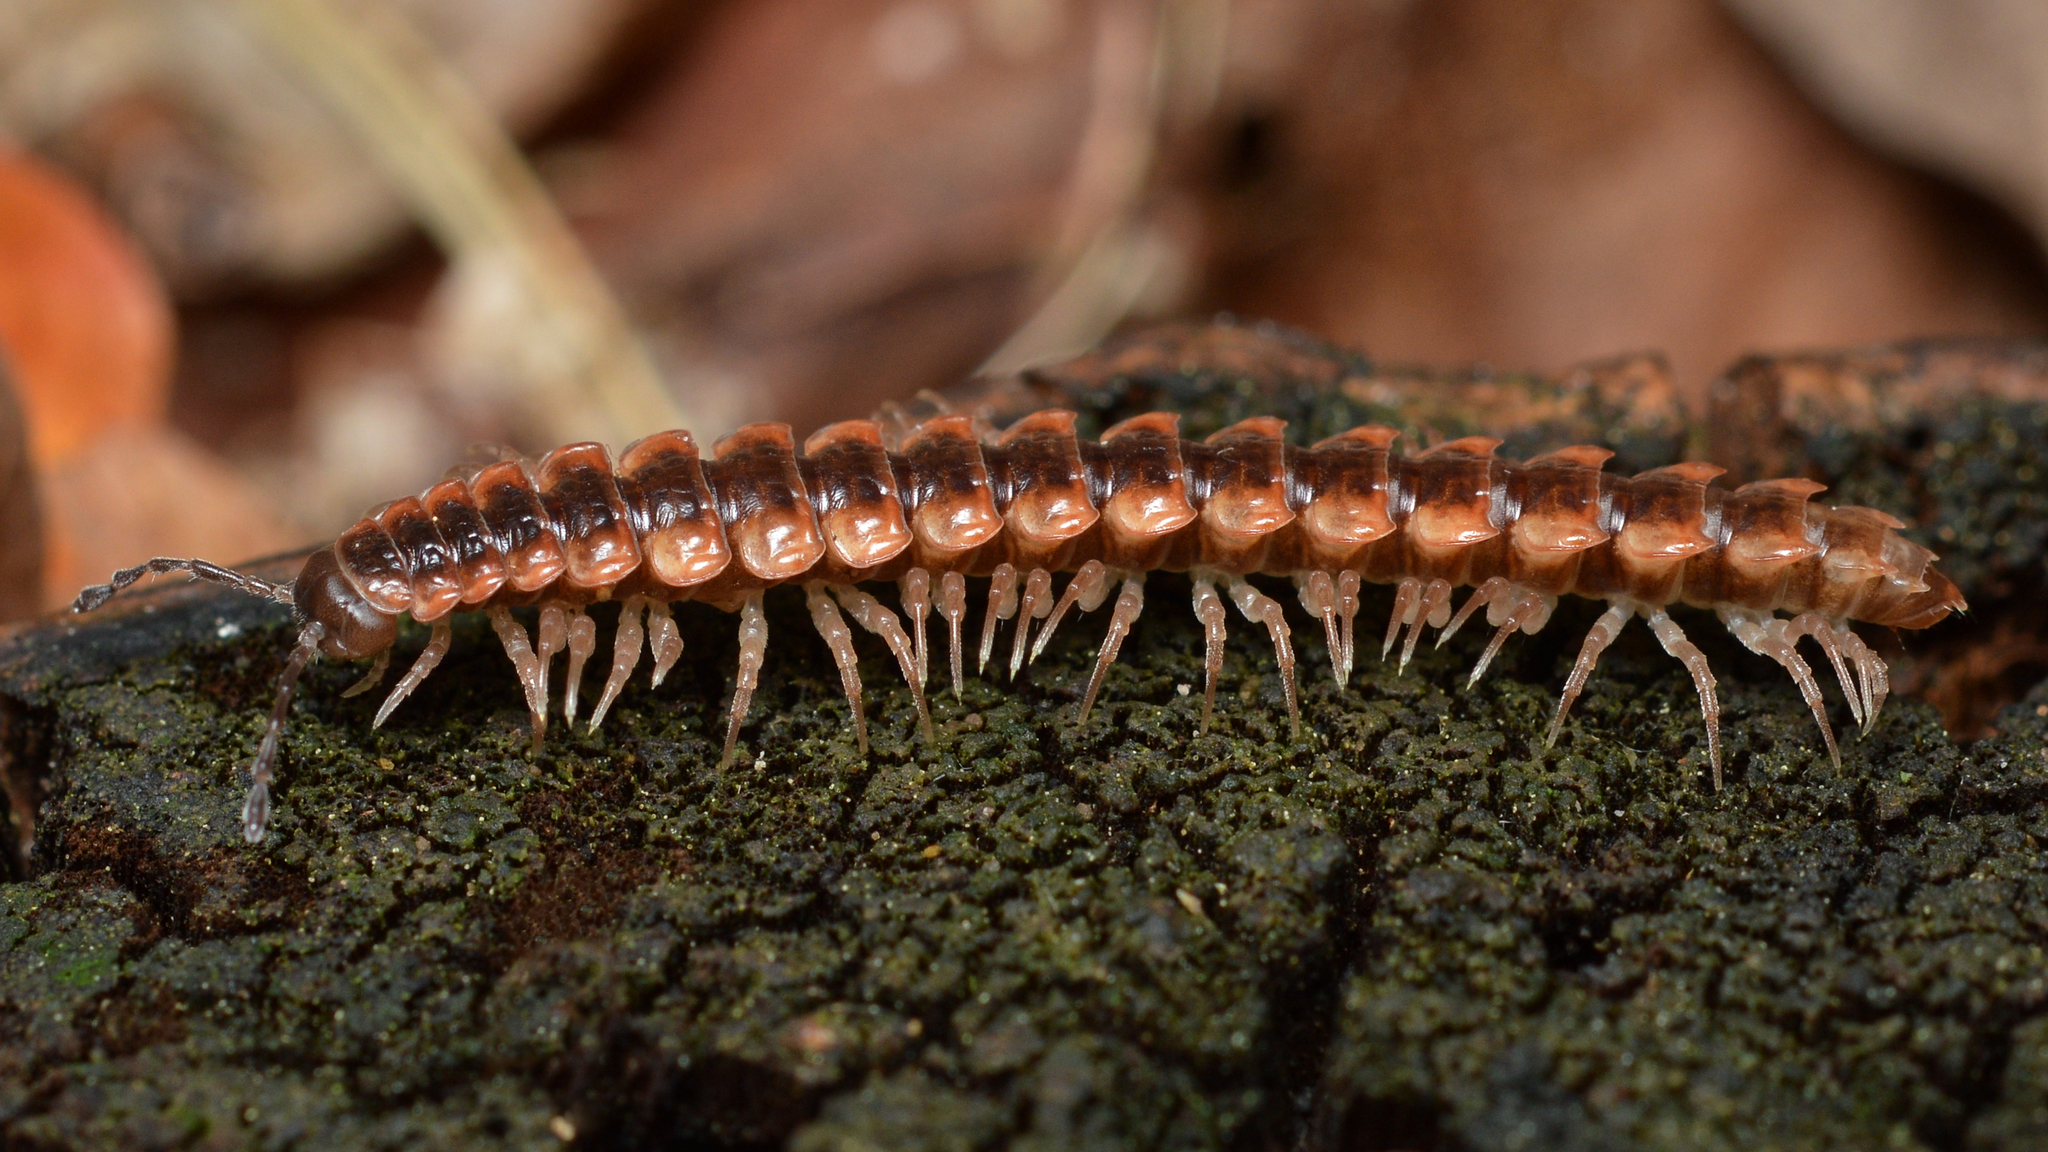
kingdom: Animalia
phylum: Arthropoda
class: Diplopoda
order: Polydesmida
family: Polydesmidae
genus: Pseudopolydesmus
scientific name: Pseudopolydesmus canadensis
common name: Canadian flat-back millipede
